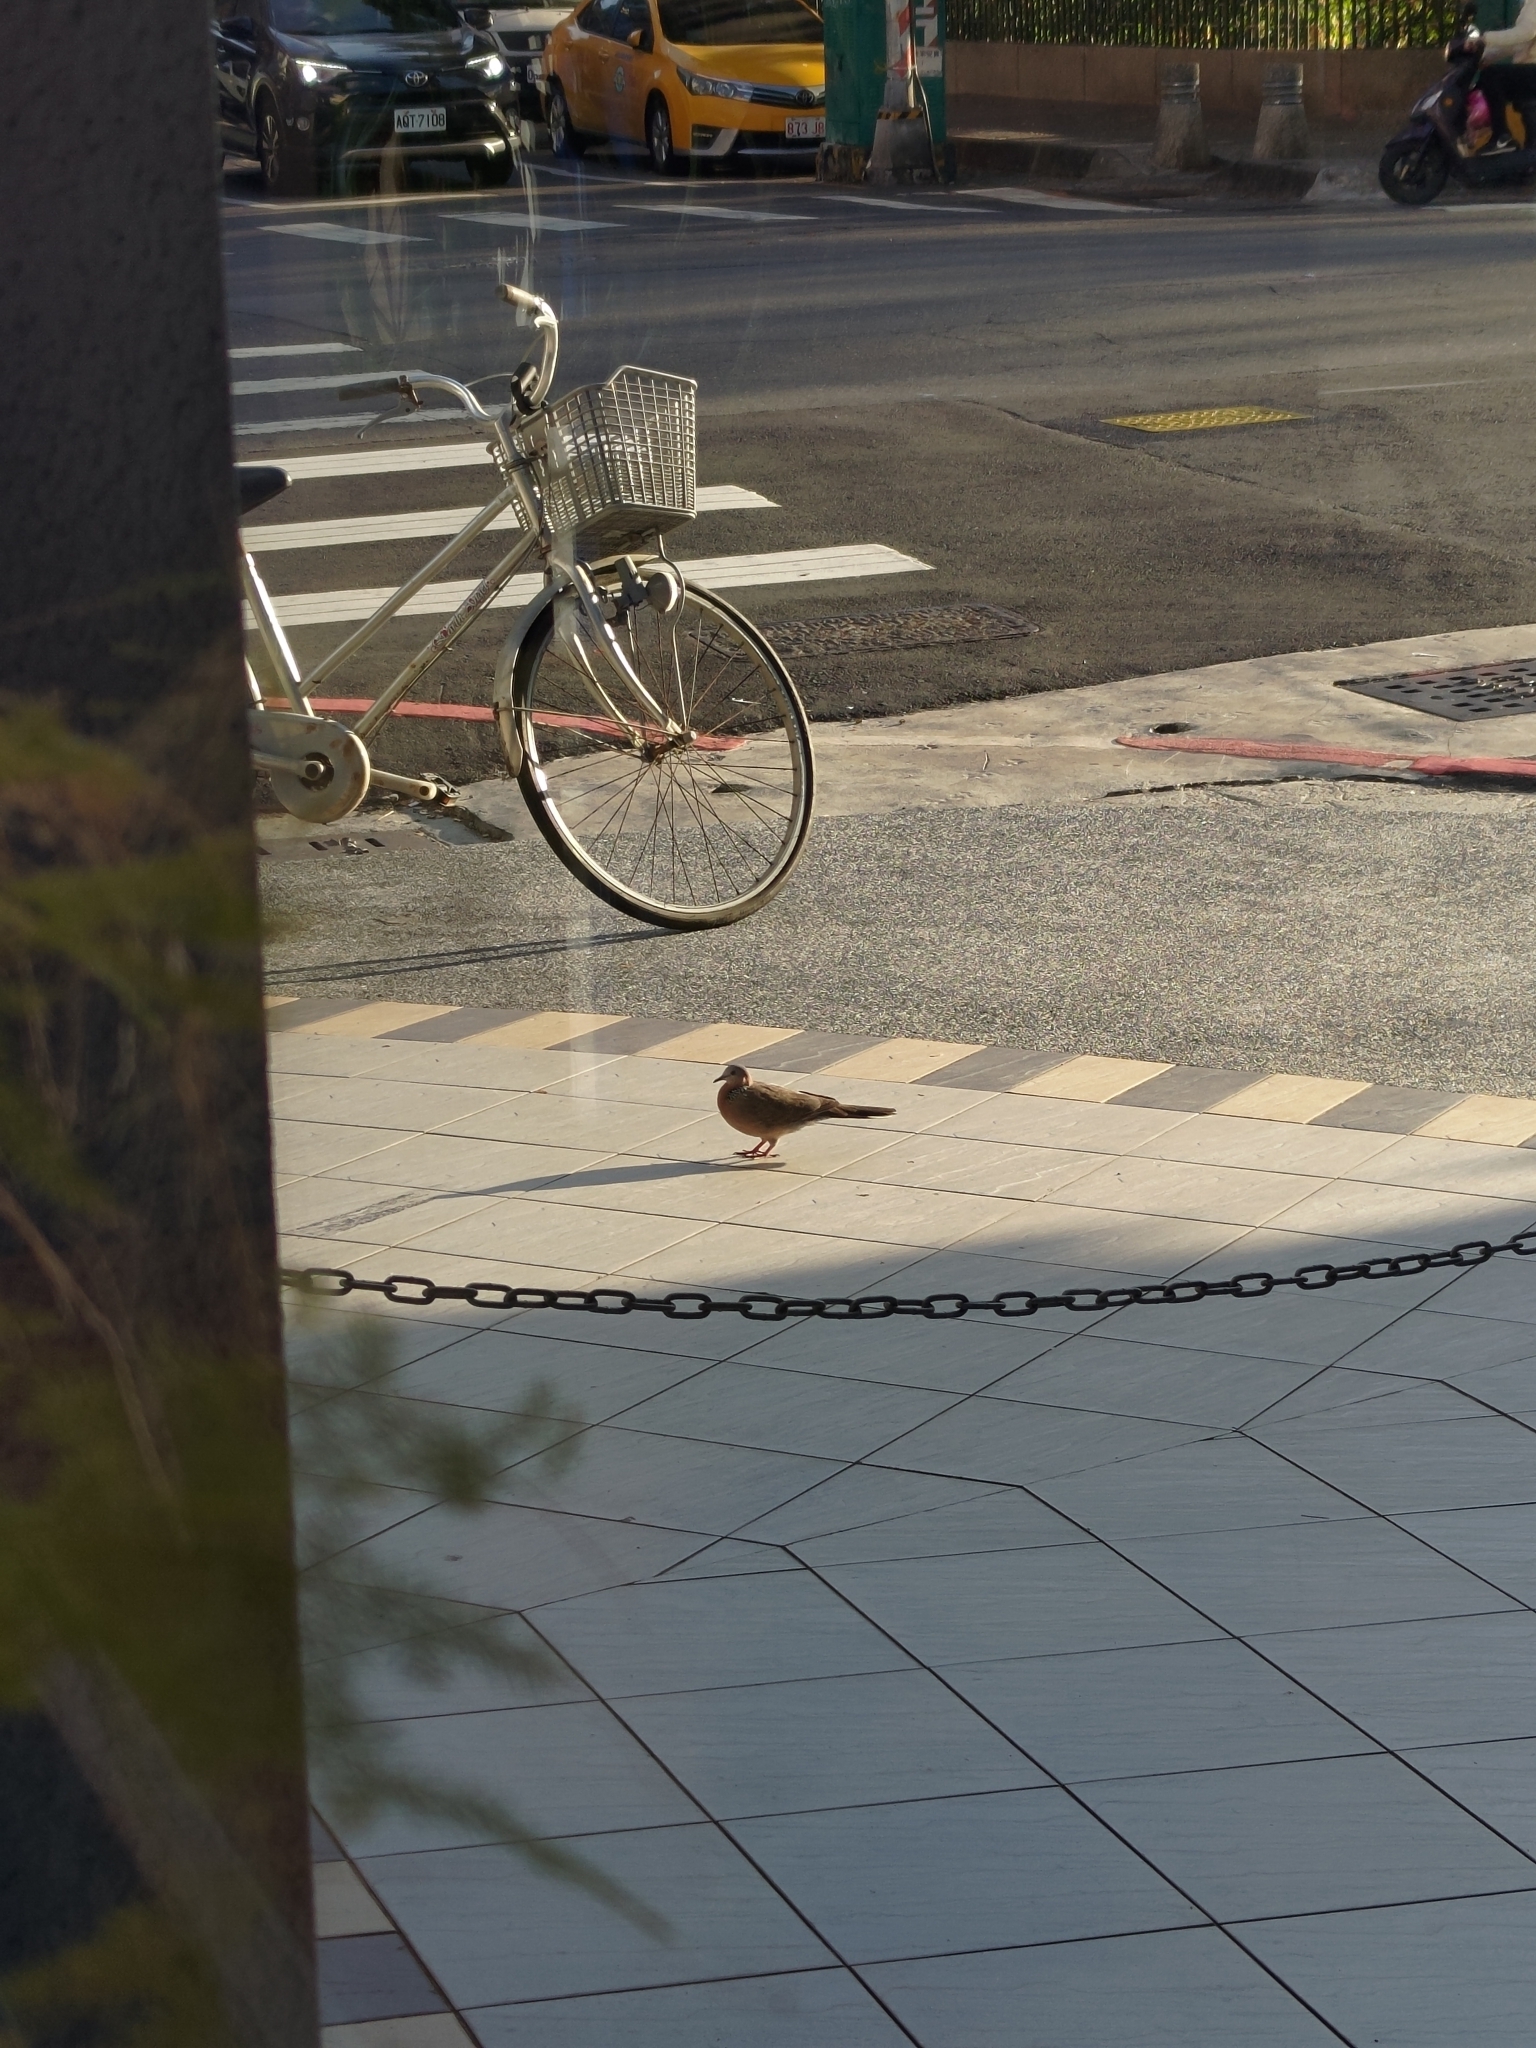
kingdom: Animalia
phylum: Chordata
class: Aves
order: Columbiformes
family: Columbidae
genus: Spilopelia
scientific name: Spilopelia chinensis
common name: Spotted dove
